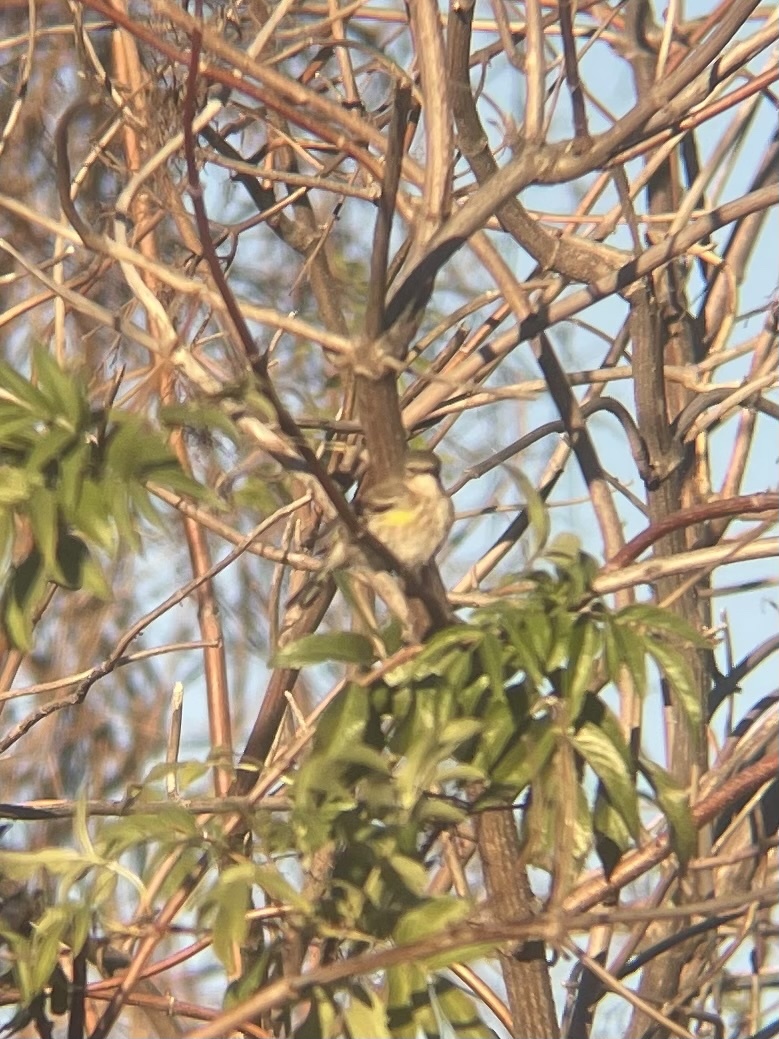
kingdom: Animalia
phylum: Chordata
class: Aves
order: Passeriformes
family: Parulidae
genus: Setophaga
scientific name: Setophaga coronata
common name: Myrtle warbler
